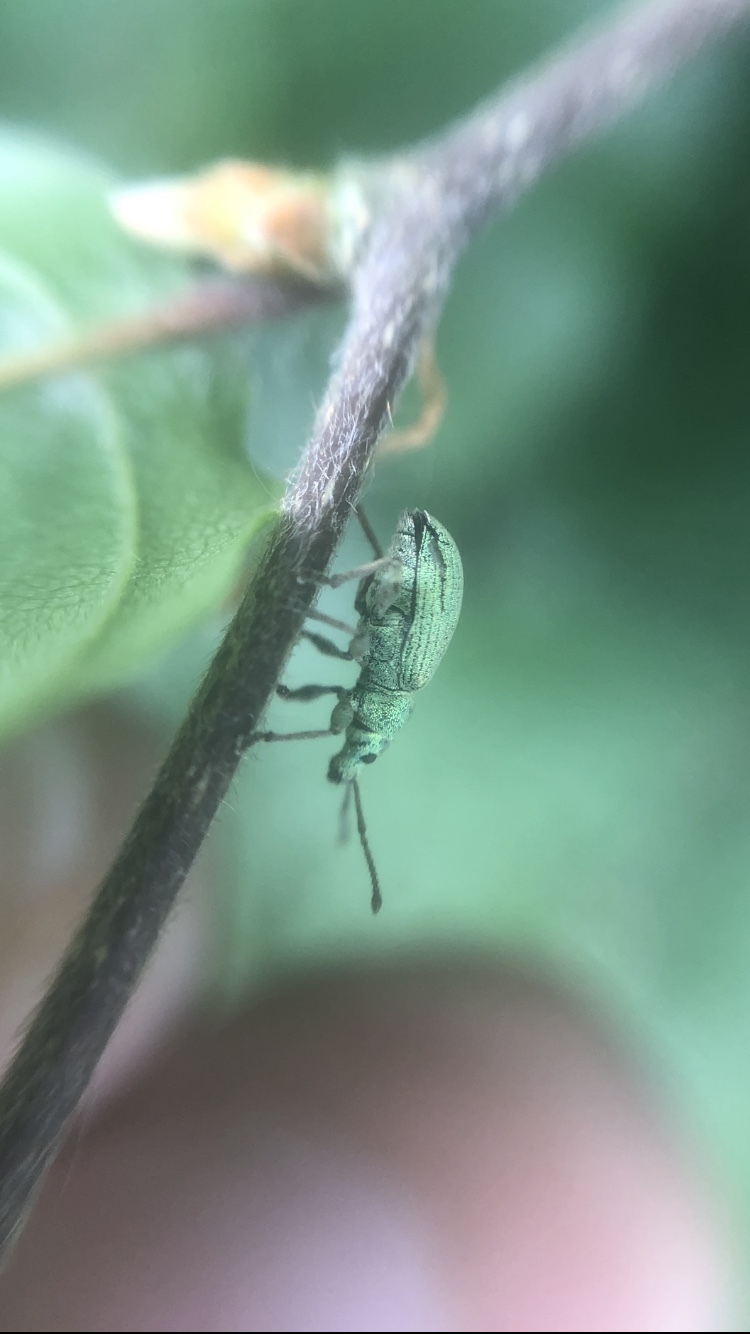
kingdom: Animalia
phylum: Arthropoda
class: Insecta
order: Coleoptera
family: Curculionidae
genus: Phyllobius
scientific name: Phyllobius pomaceus
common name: Green nettle weevil
